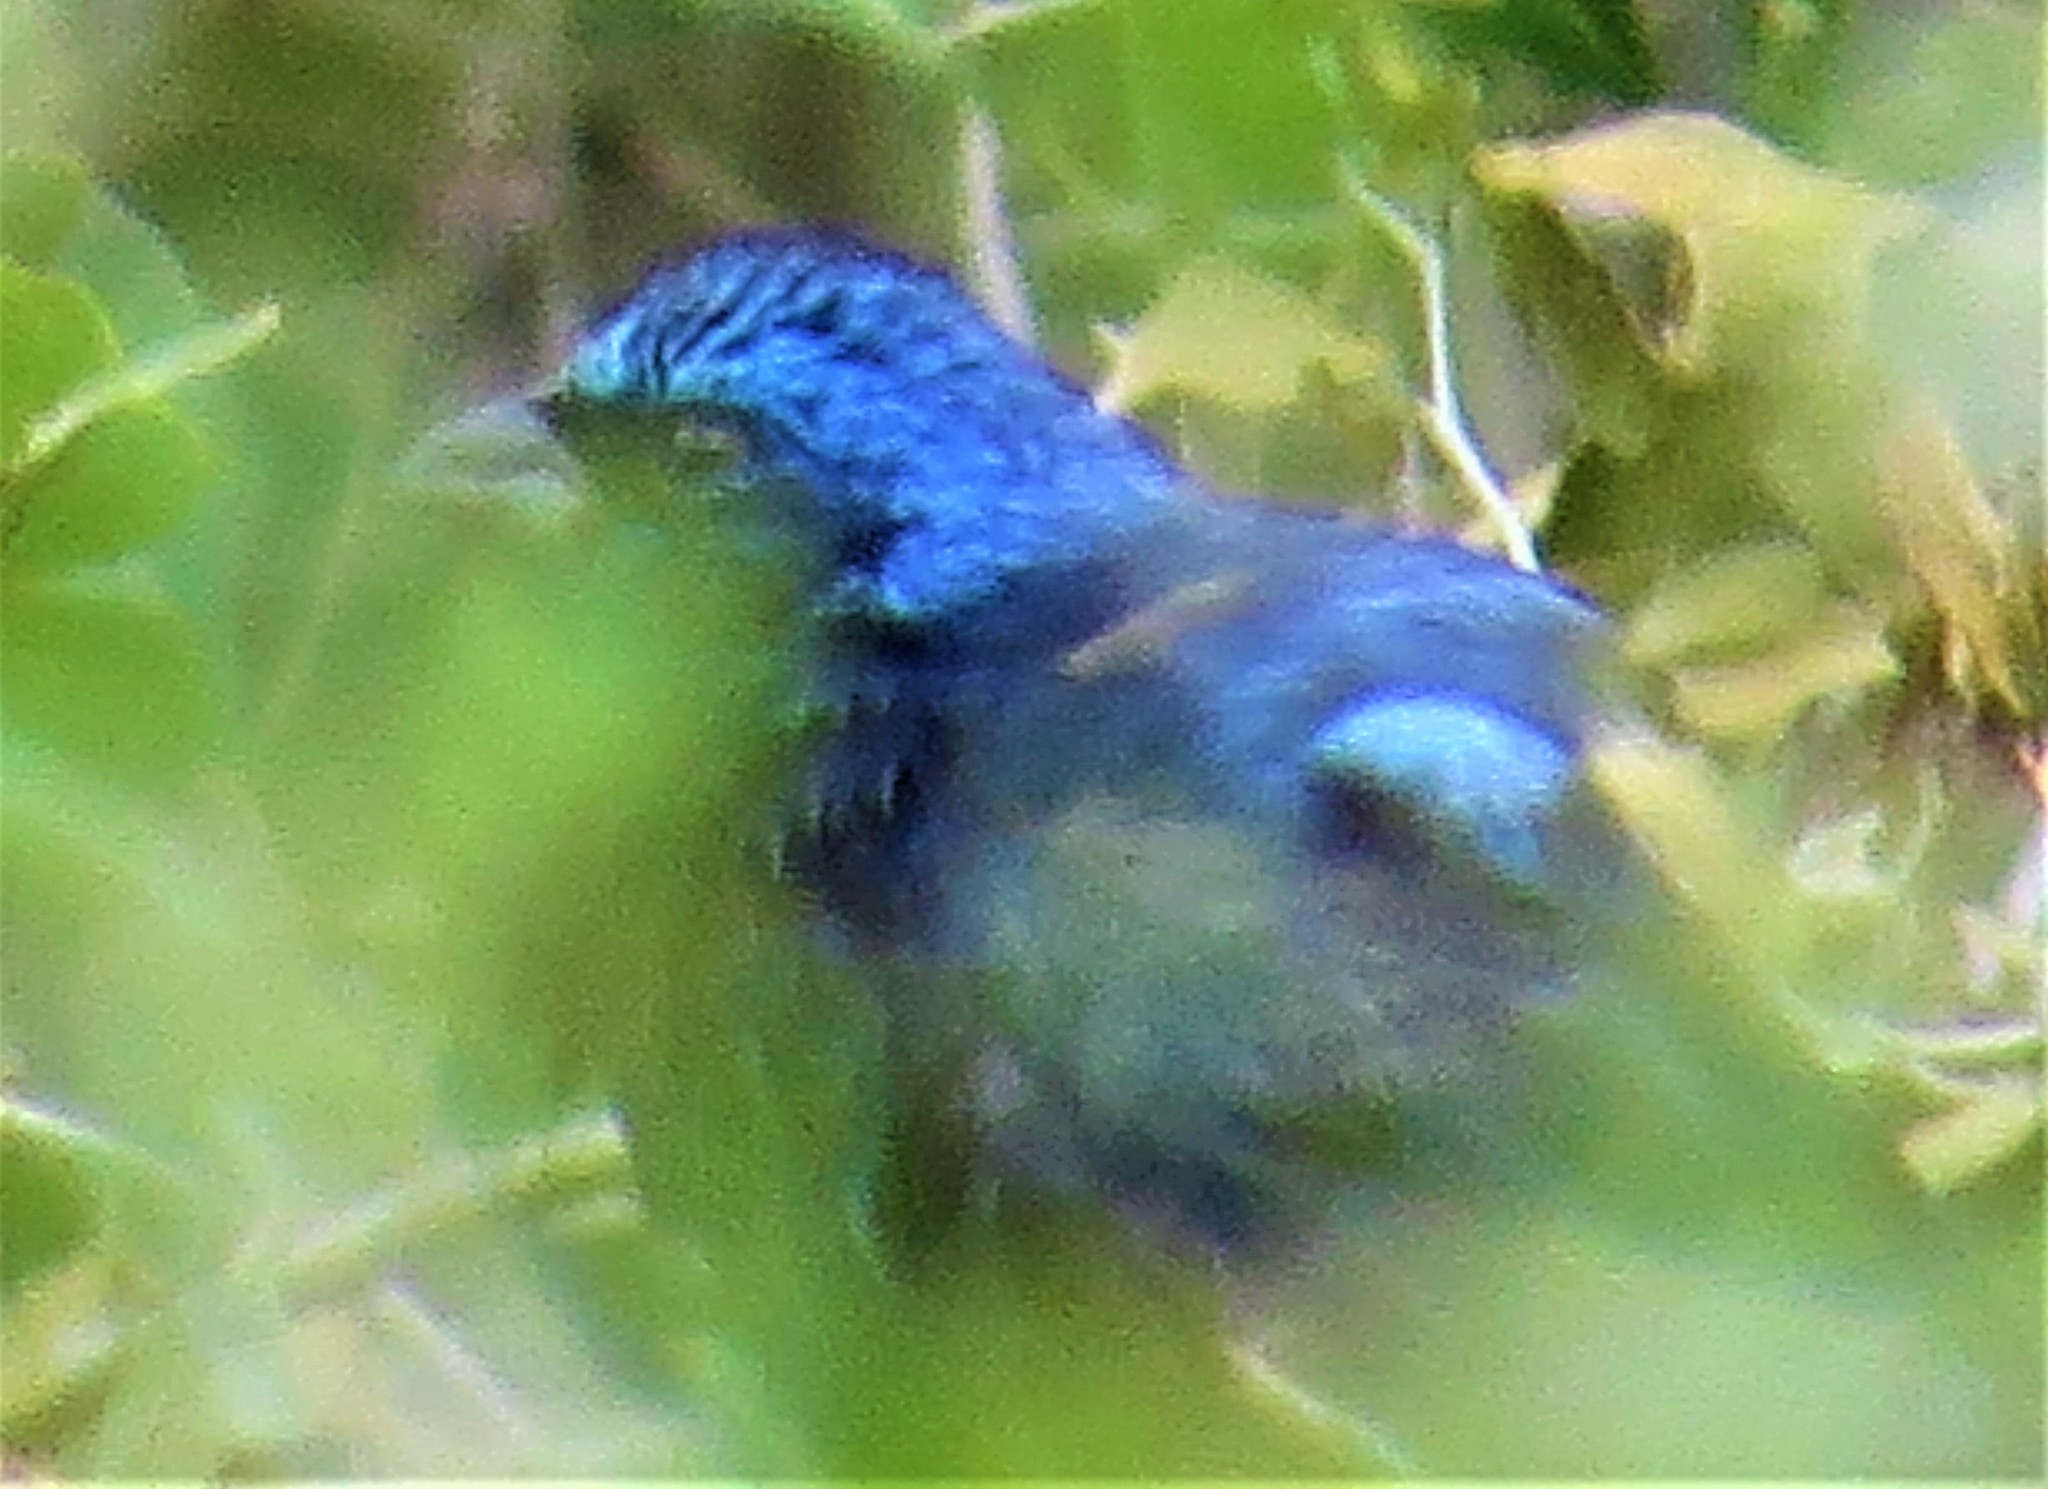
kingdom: Animalia
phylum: Chordata
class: Aves
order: Passeriformes
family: Cardinalidae
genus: Cyanocompsa
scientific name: Cyanocompsa parellina
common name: Blue bunting
